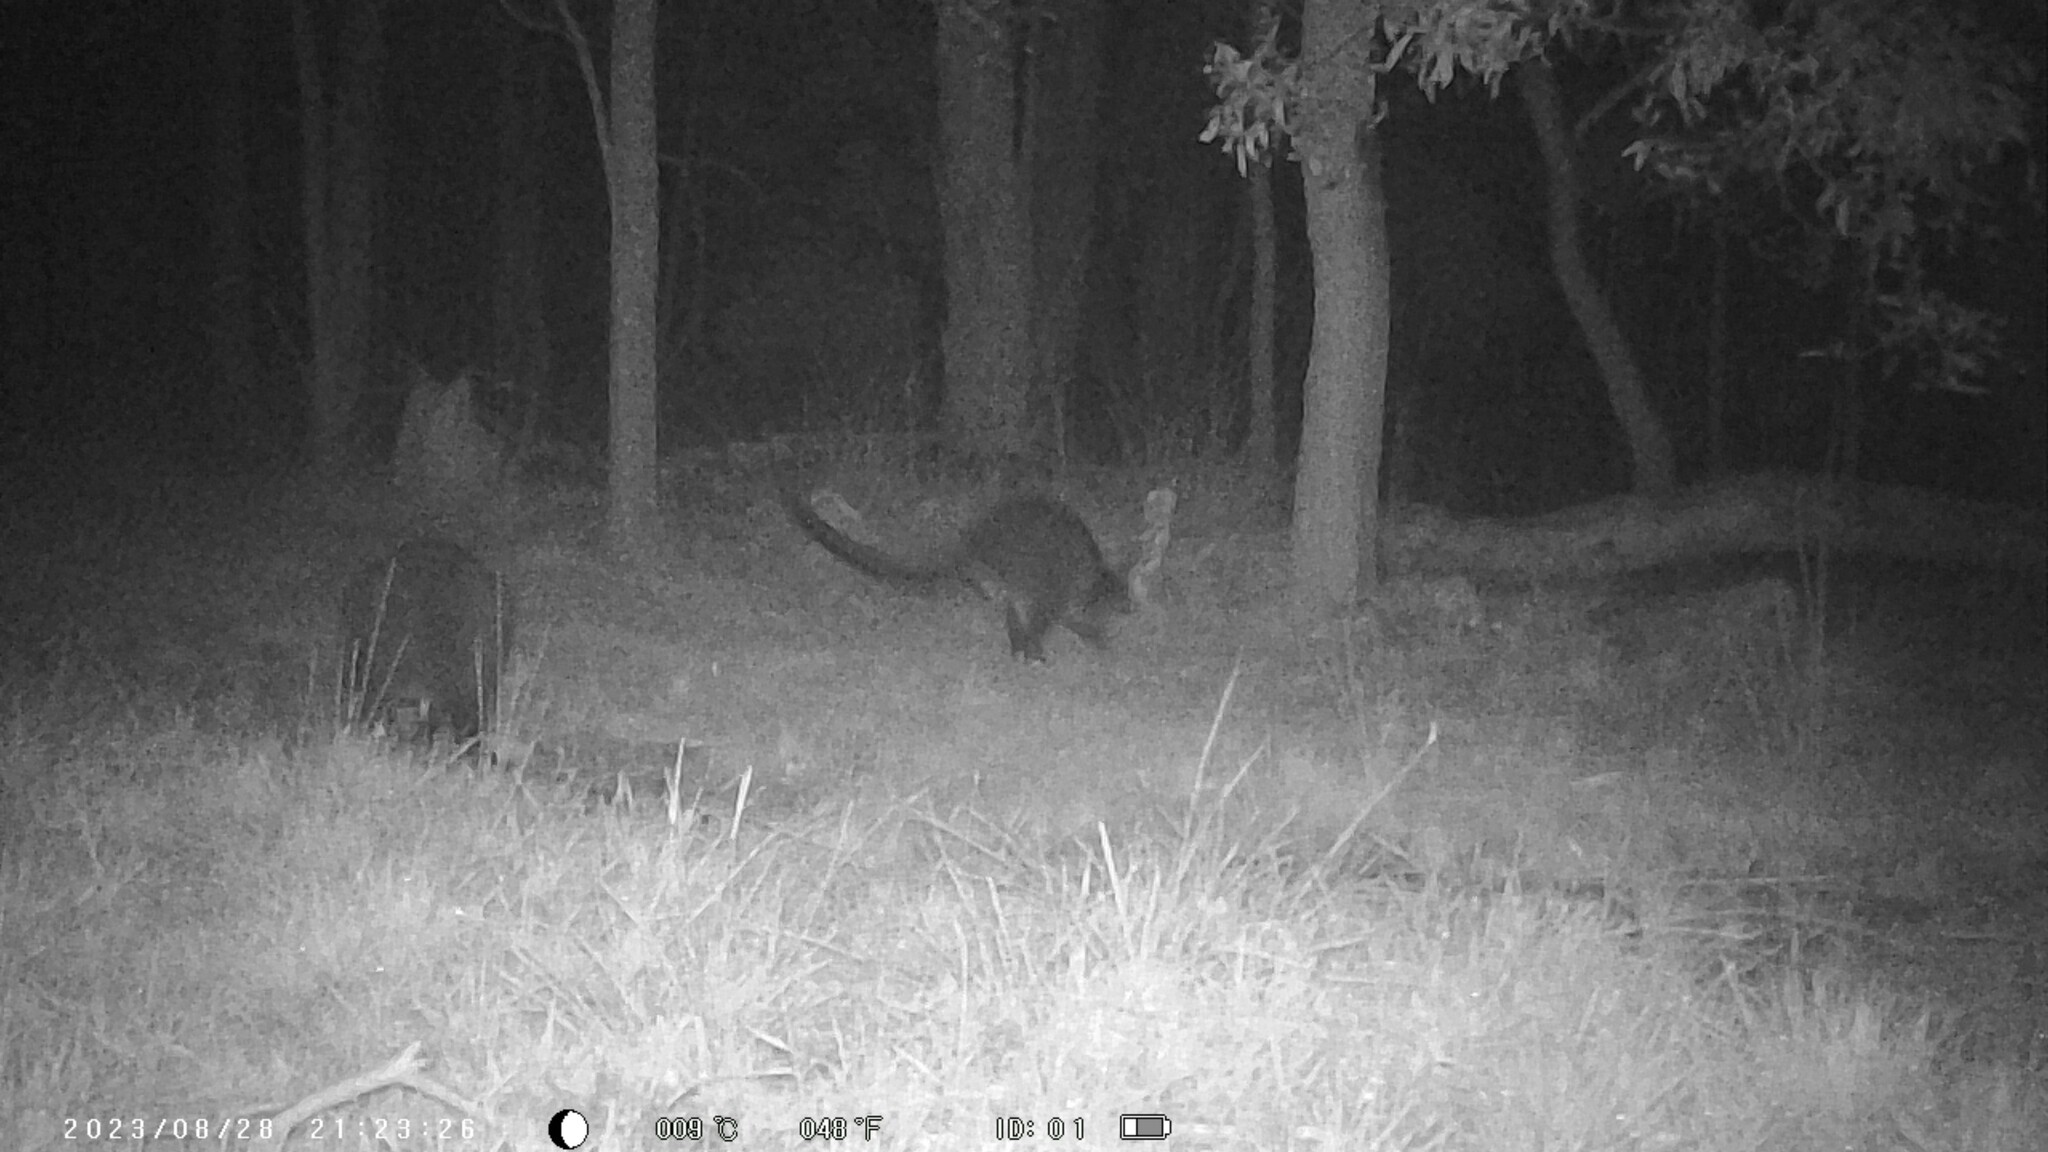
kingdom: Animalia
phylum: Chordata
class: Mammalia
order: Diprotodontia
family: Macropodidae
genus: Wallabia
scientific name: Wallabia bicolor
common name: Swamp wallaby
